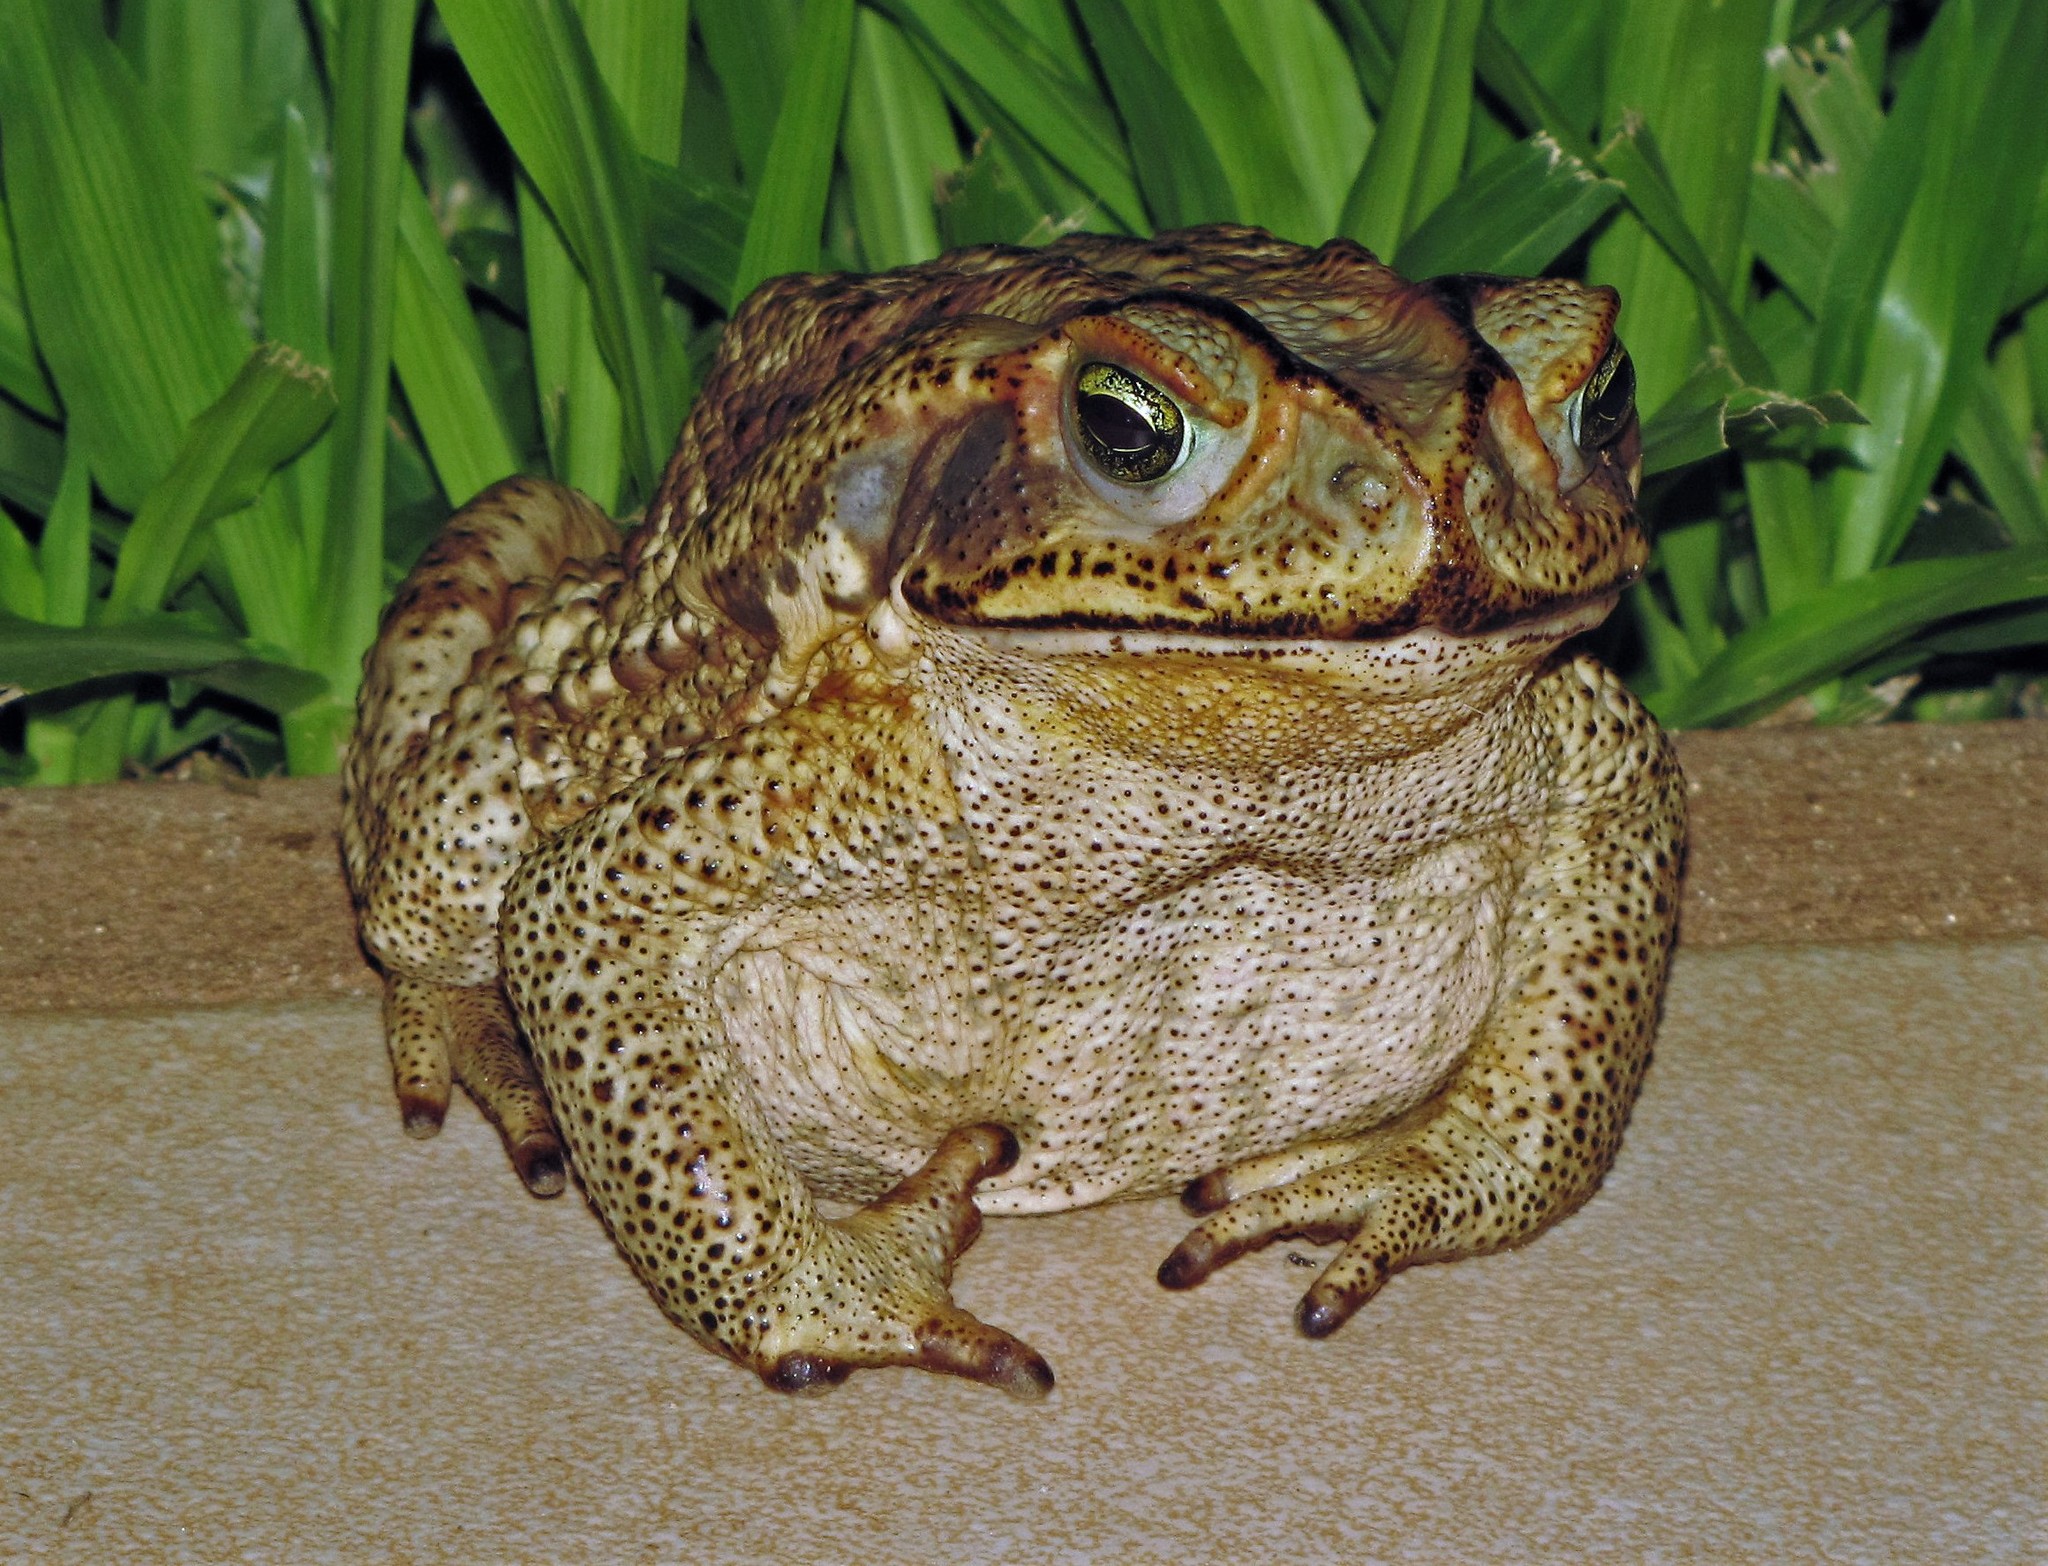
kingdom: Animalia
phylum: Chordata
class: Amphibia
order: Anura
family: Bufonidae
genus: Rhinella
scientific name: Rhinella diptycha
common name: Cope's toad
